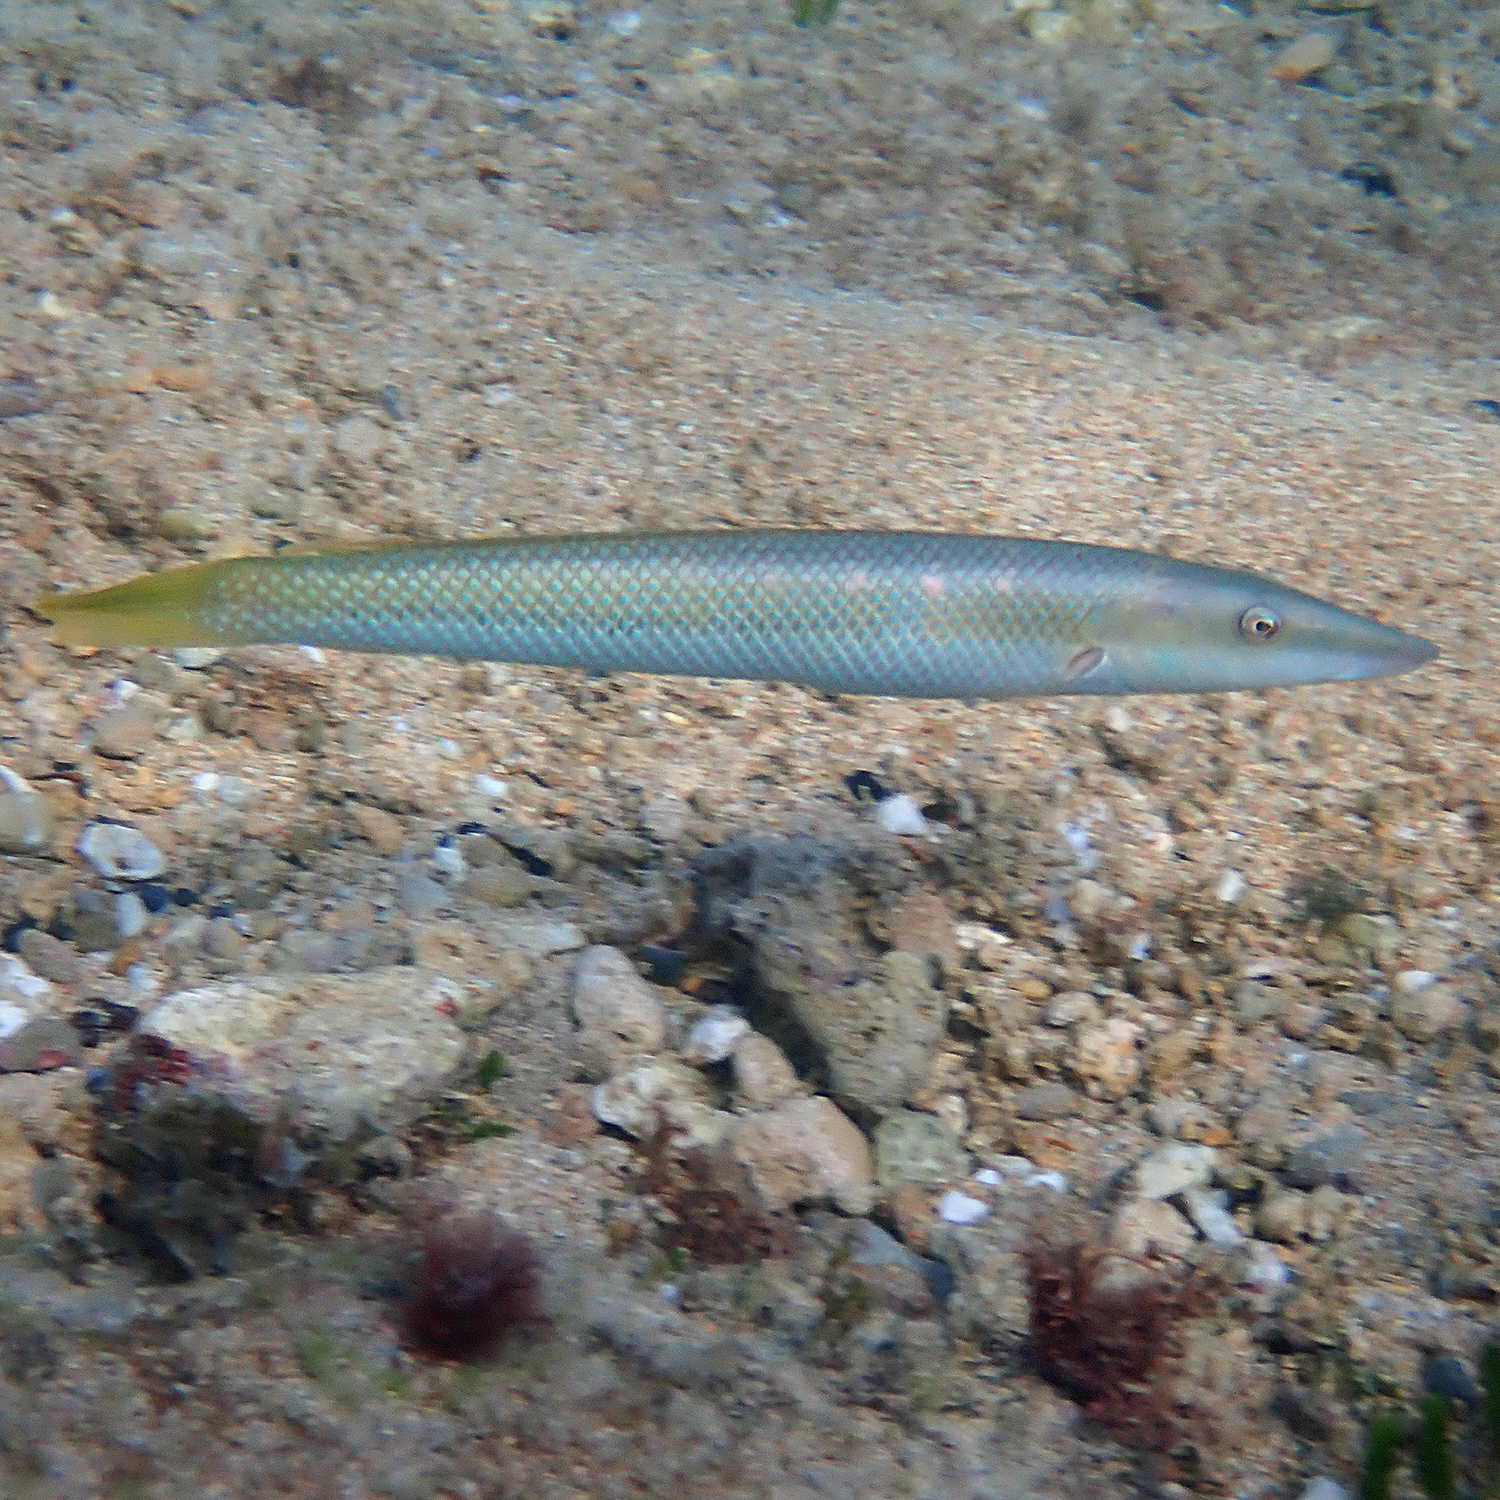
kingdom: Animalia
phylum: Chordata
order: Perciformes
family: Labridae
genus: Cheilio
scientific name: Cheilio inermis
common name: Cigar wrasse
